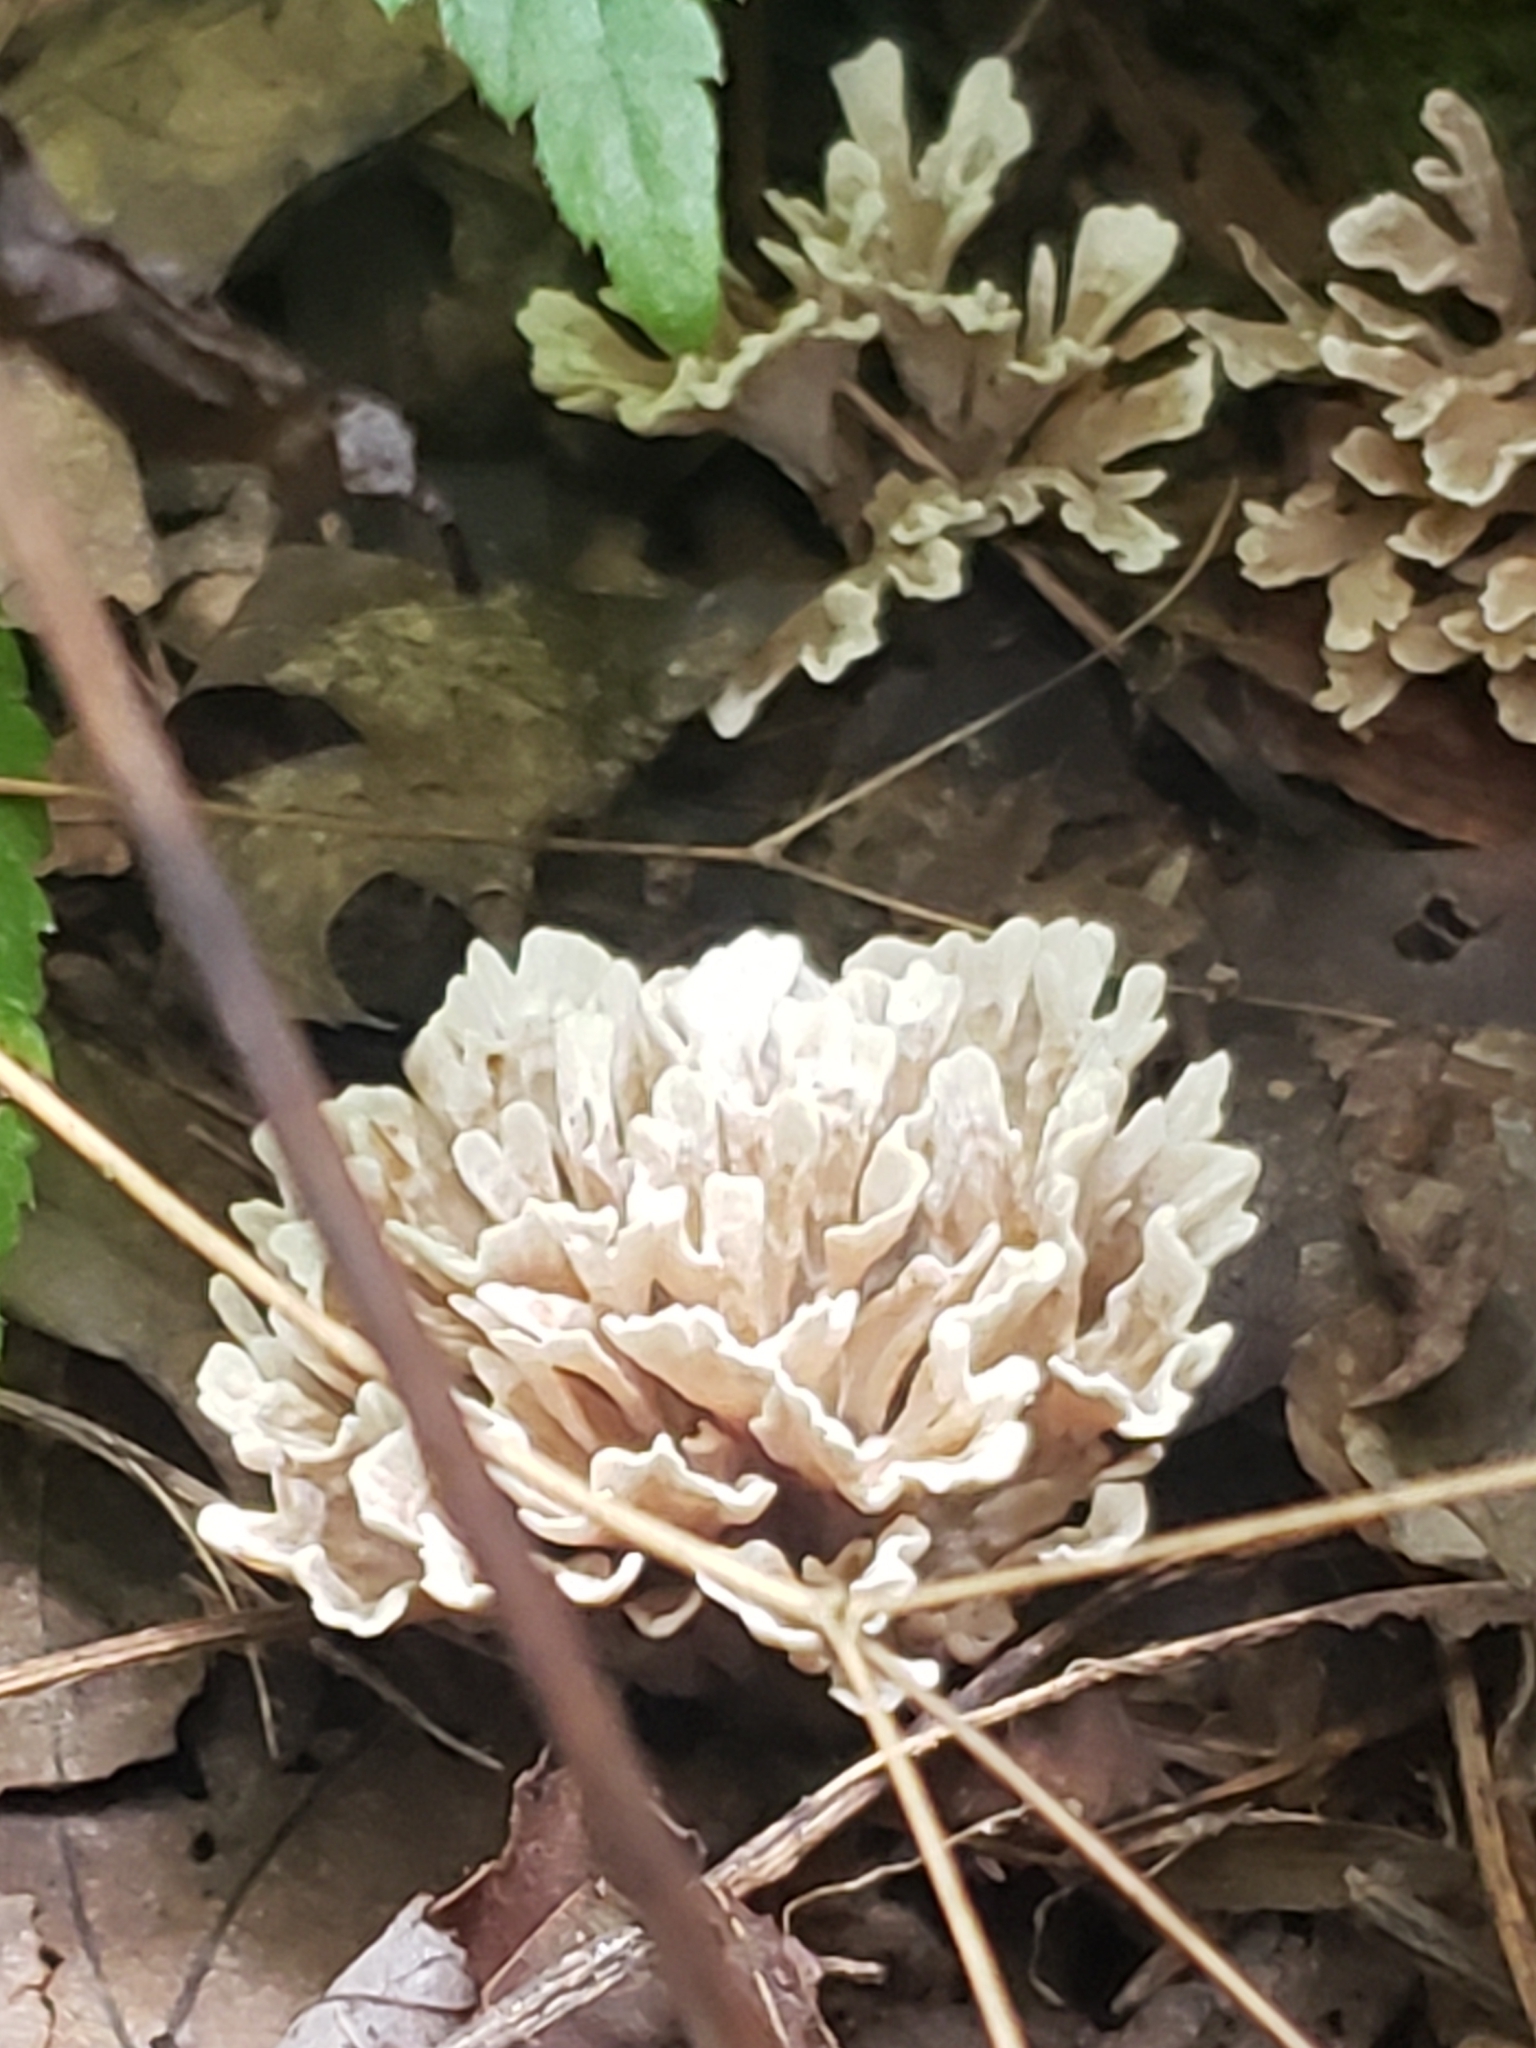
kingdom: Fungi
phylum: Basidiomycota
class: Agaricomycetes
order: Polyporales
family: Sparassidaceae
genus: Sparassis
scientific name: Sparassis spathulata
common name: Eastern cauliflower mushroom
